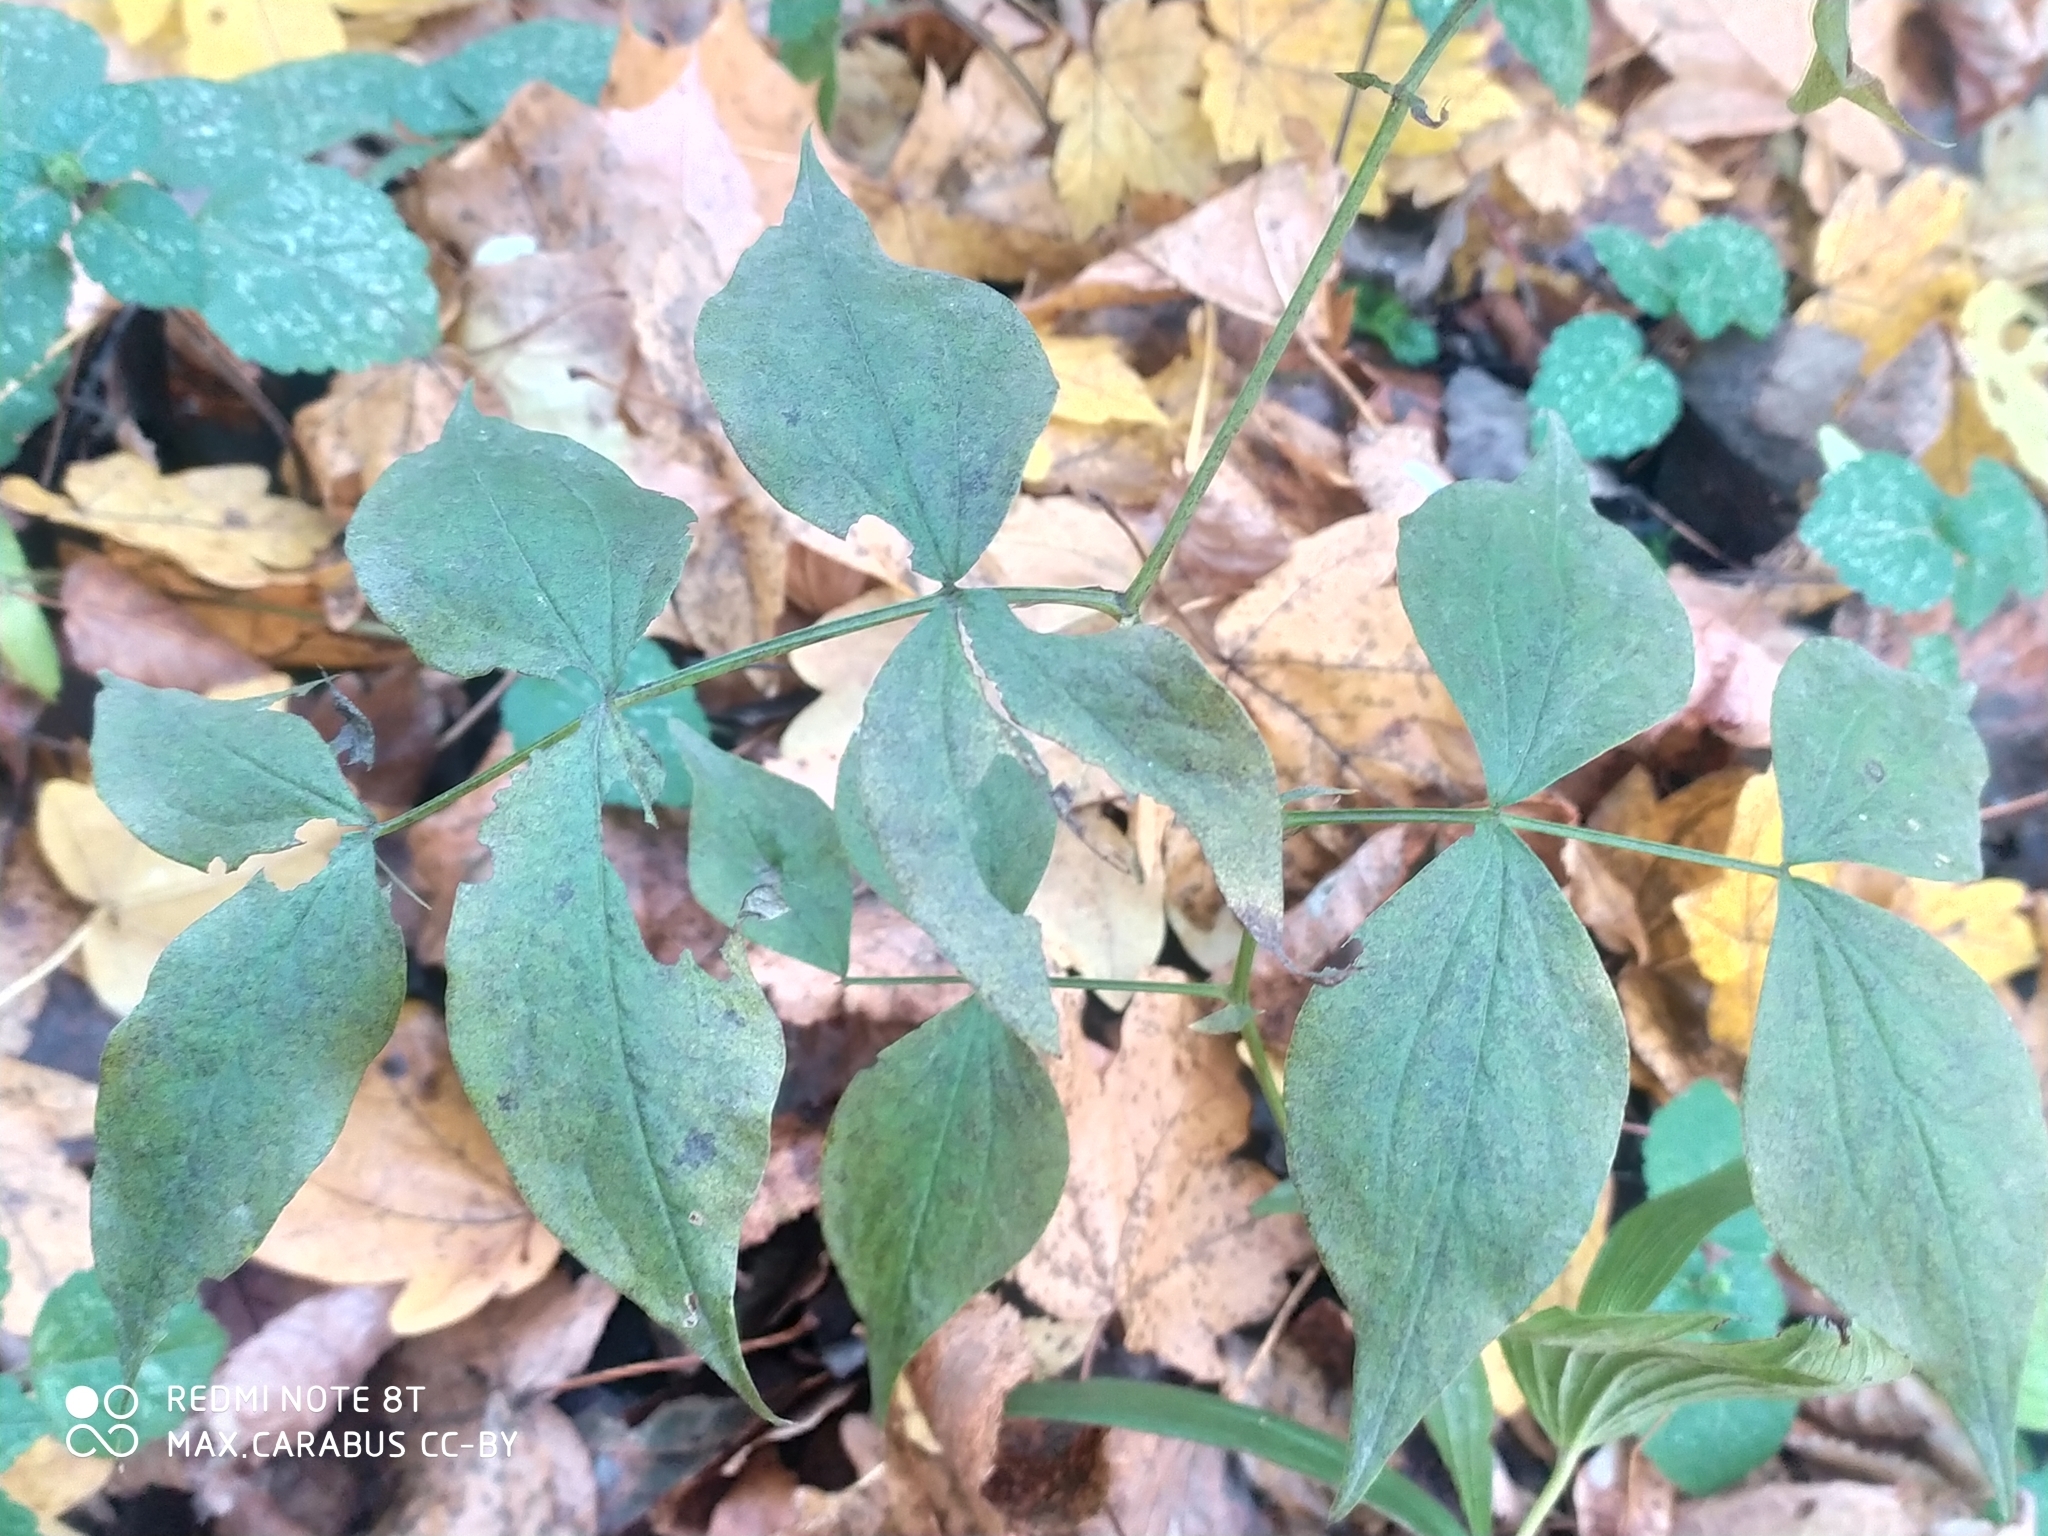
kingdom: Plantae
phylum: Tracheophyta
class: Magnoliopsida
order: Fabales
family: Fabaceae
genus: Lathyrus
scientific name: Lathyrus vernus
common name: Spring pea
